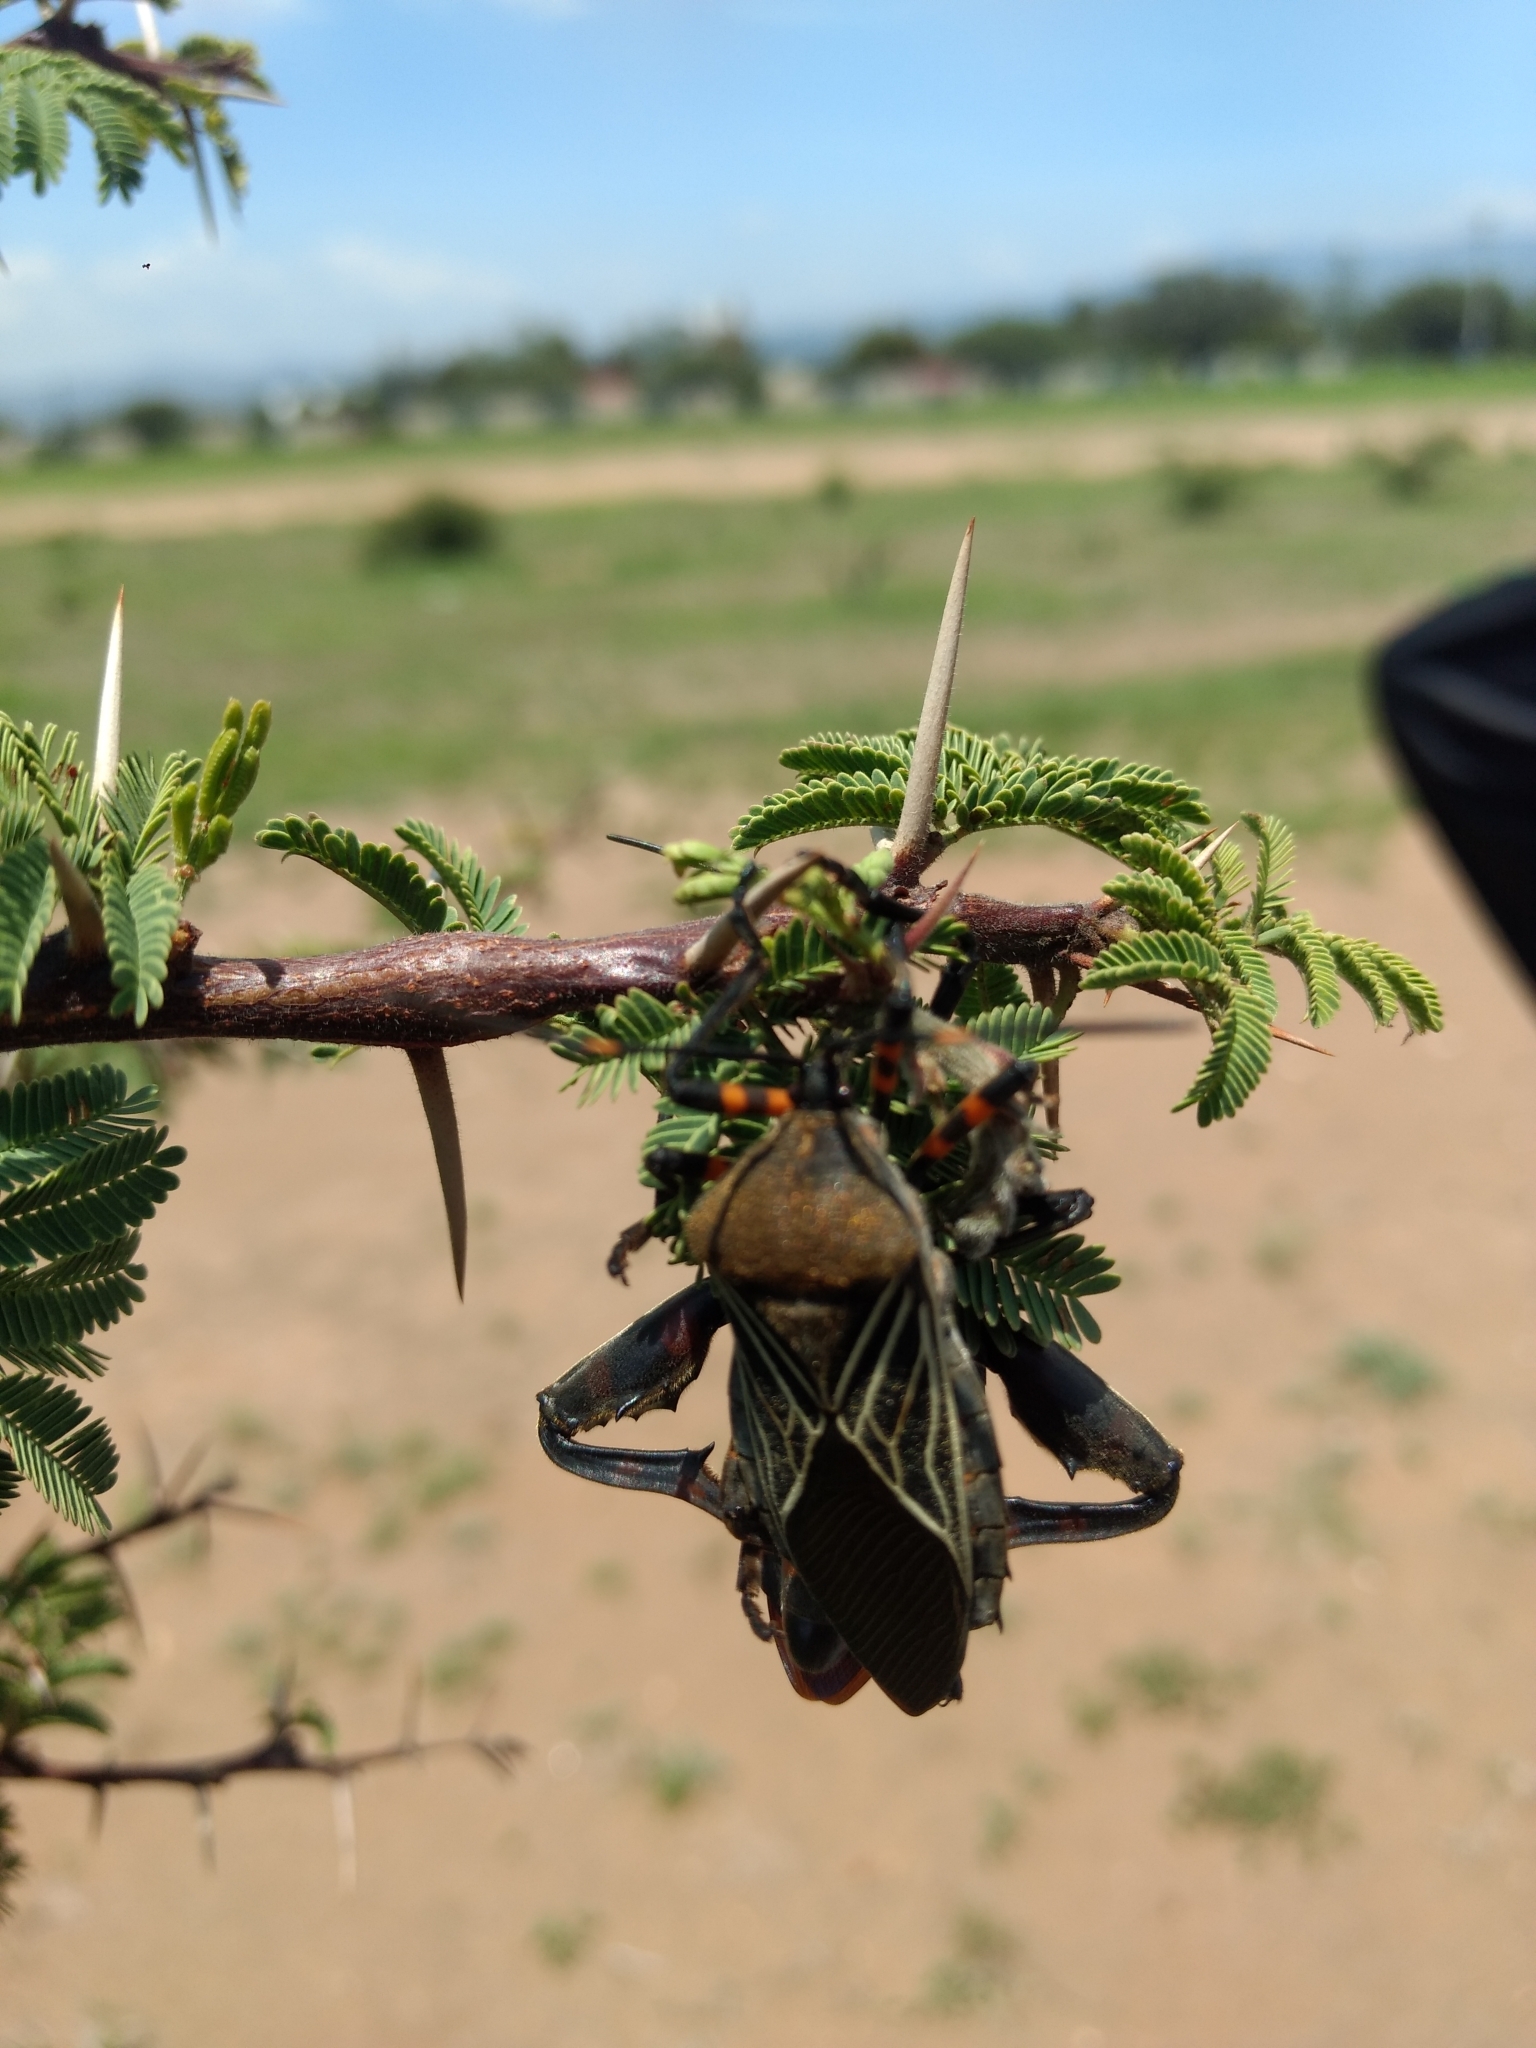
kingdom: Animalia
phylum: Arthropoda
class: Insecta
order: Hemiptera
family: Coreidae
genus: Thasus
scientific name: Thasus
